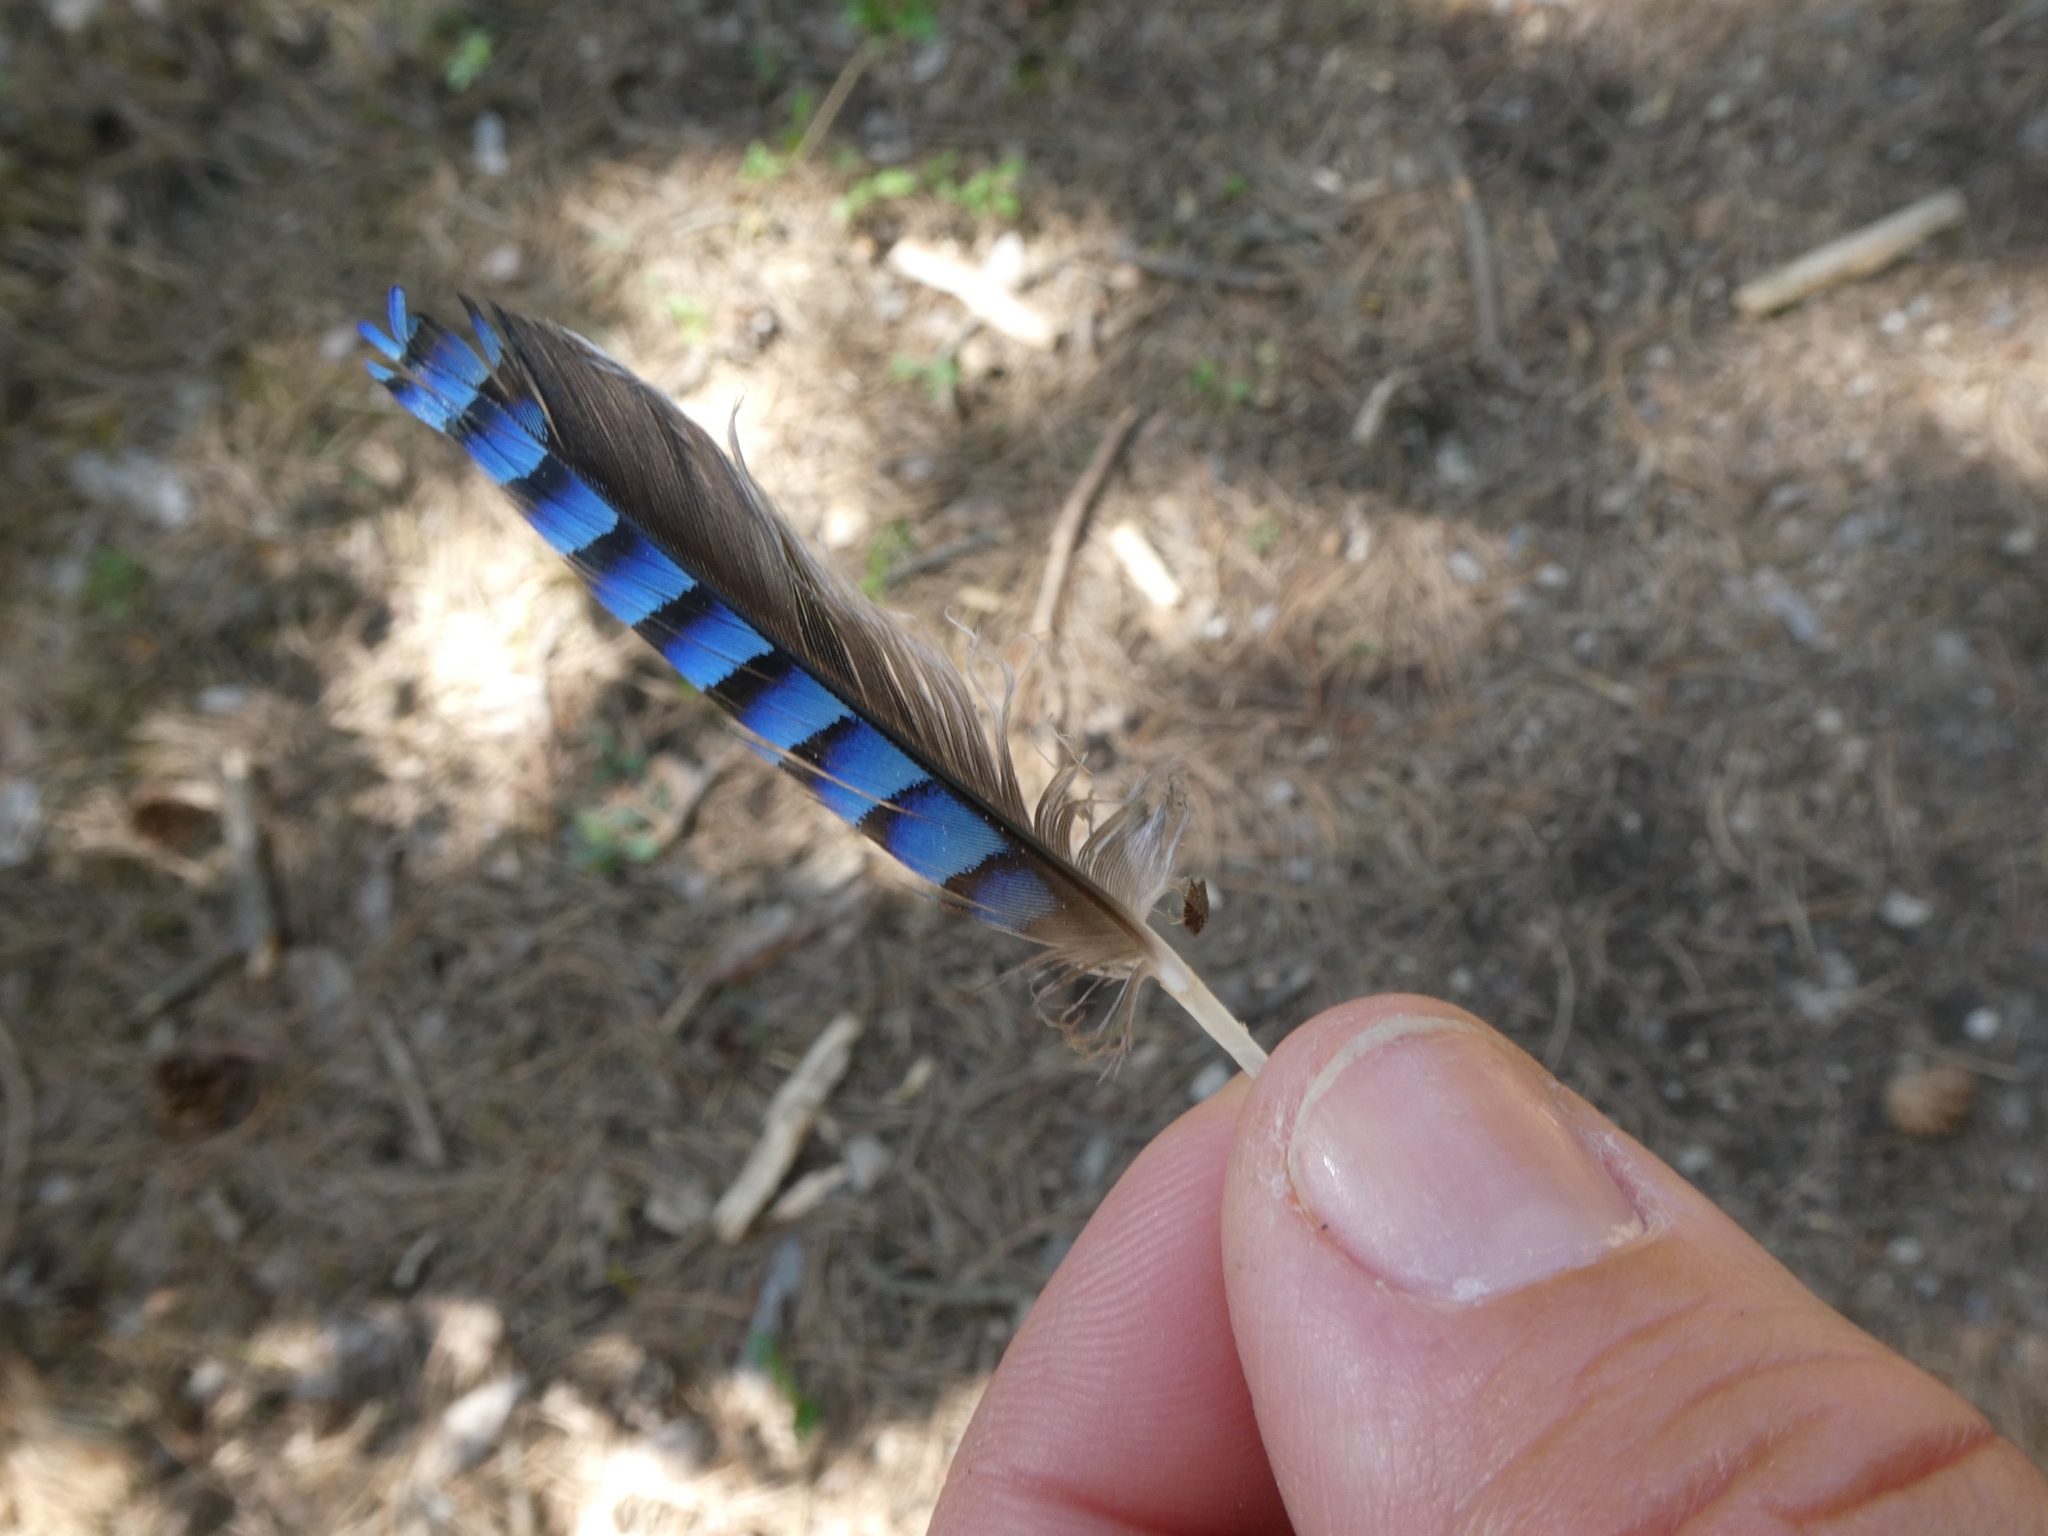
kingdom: Animalia
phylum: Chordata
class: Aves
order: Passeriformes
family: Corvidae
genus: Garrulus
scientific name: Garrulus glandarius
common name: Eurasian jay
